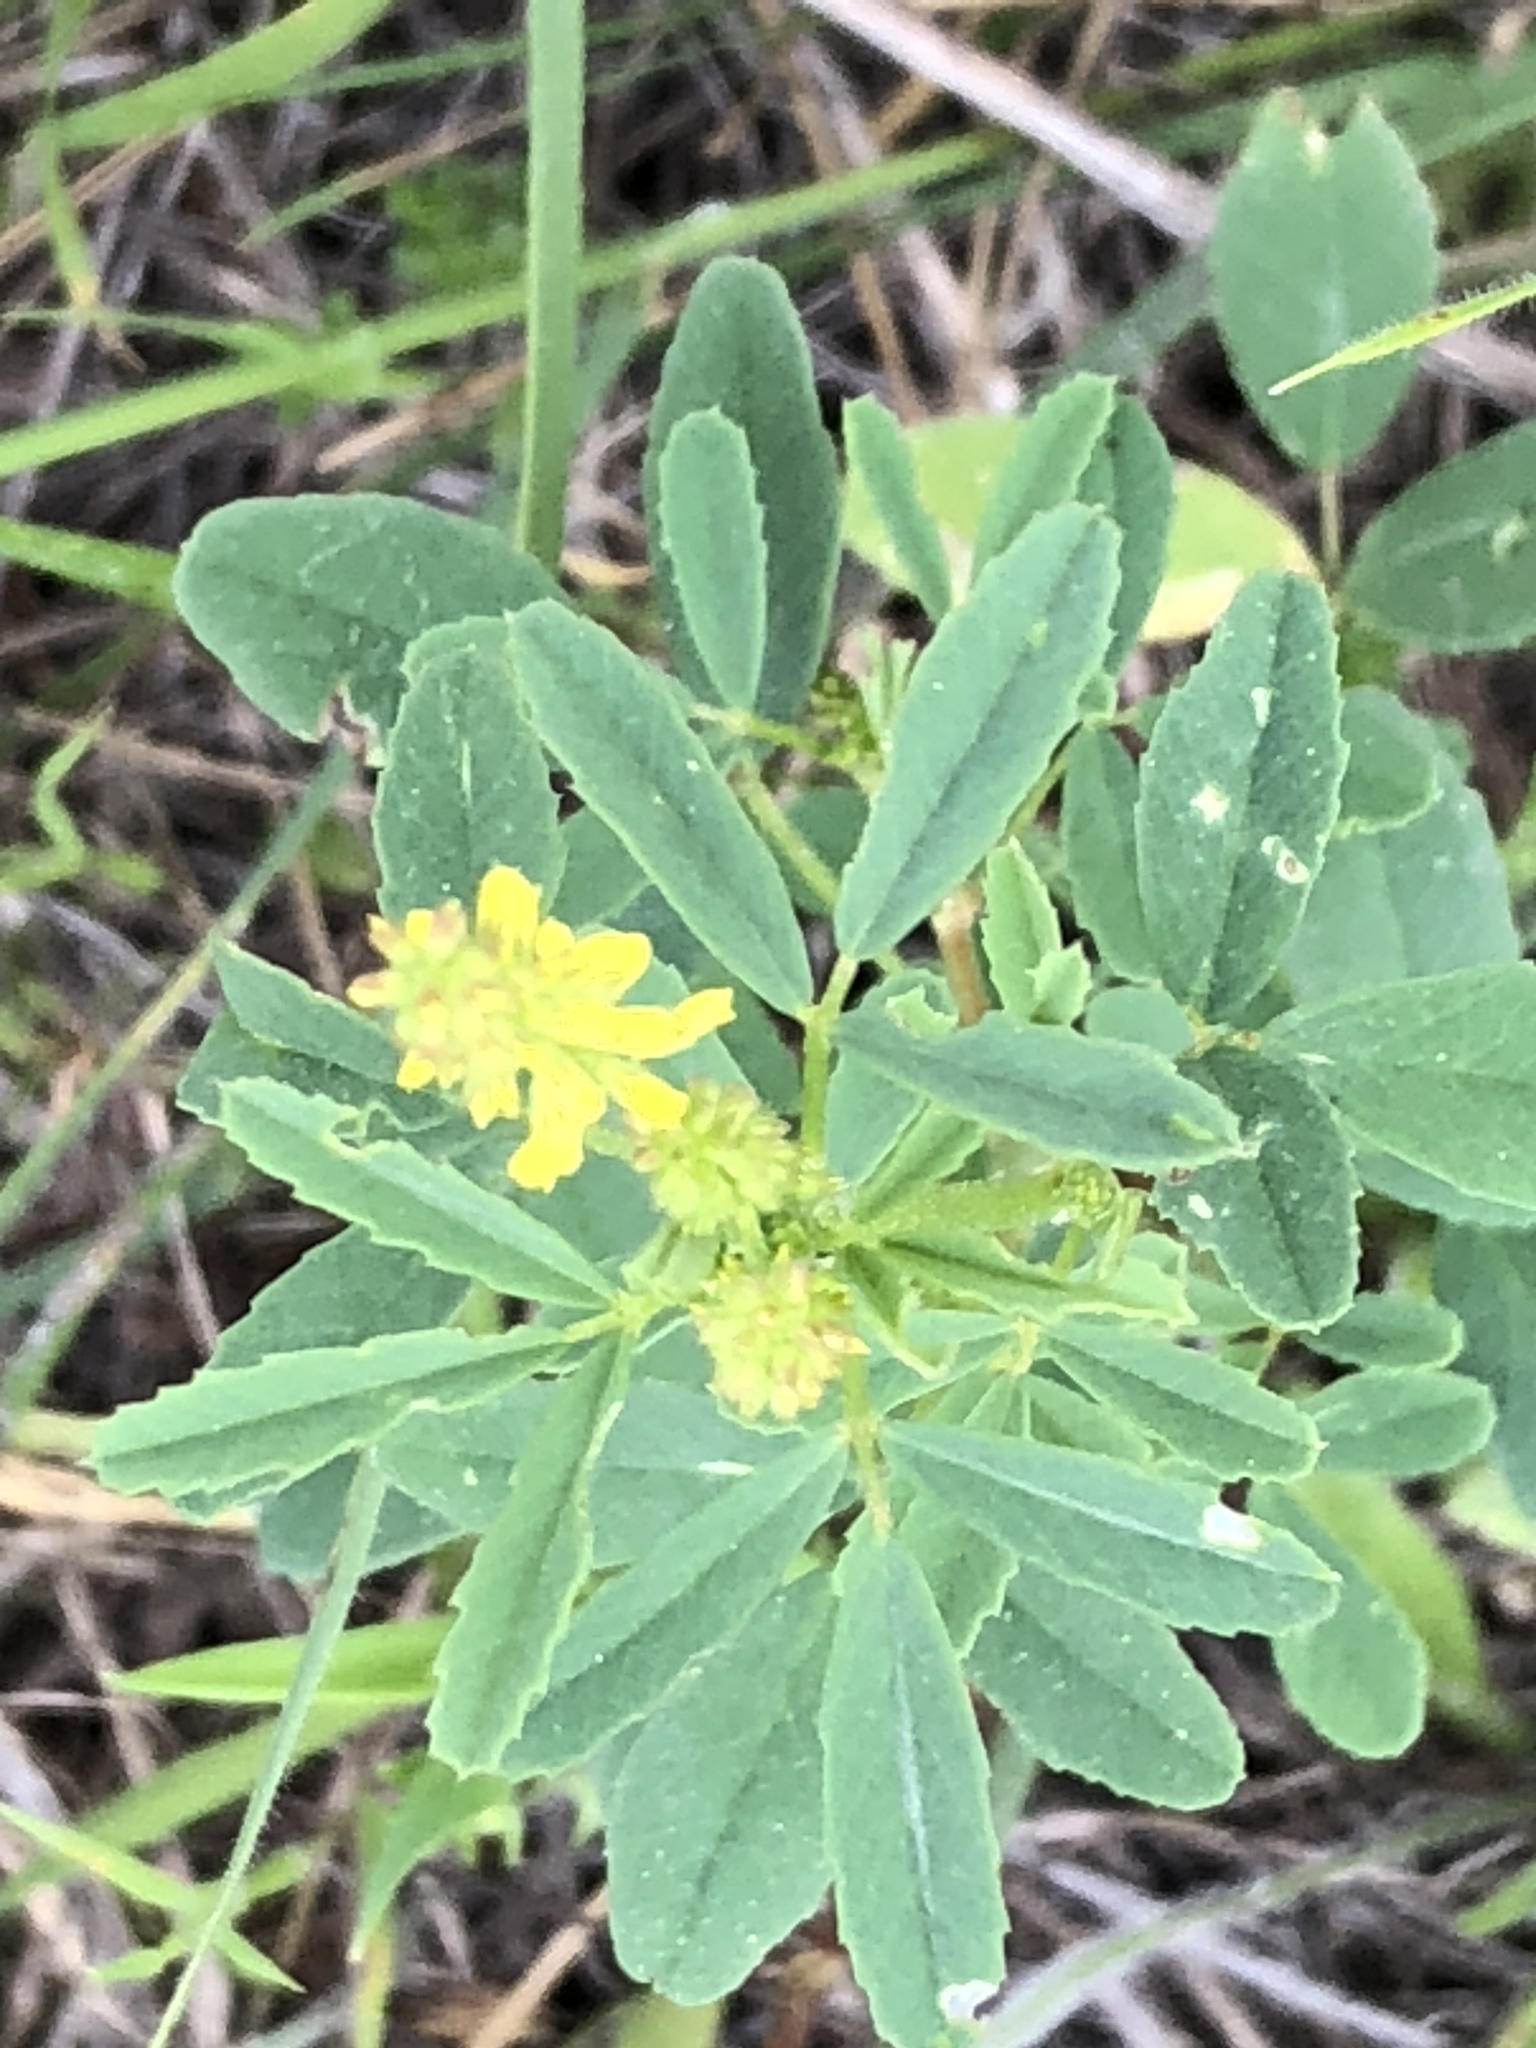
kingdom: Plantae
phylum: Tracheophyta
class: Magnoliopsida
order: Fabales
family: Fabaceae
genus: Melilotus
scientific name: Melilotus officinalis
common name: Sweetclover
